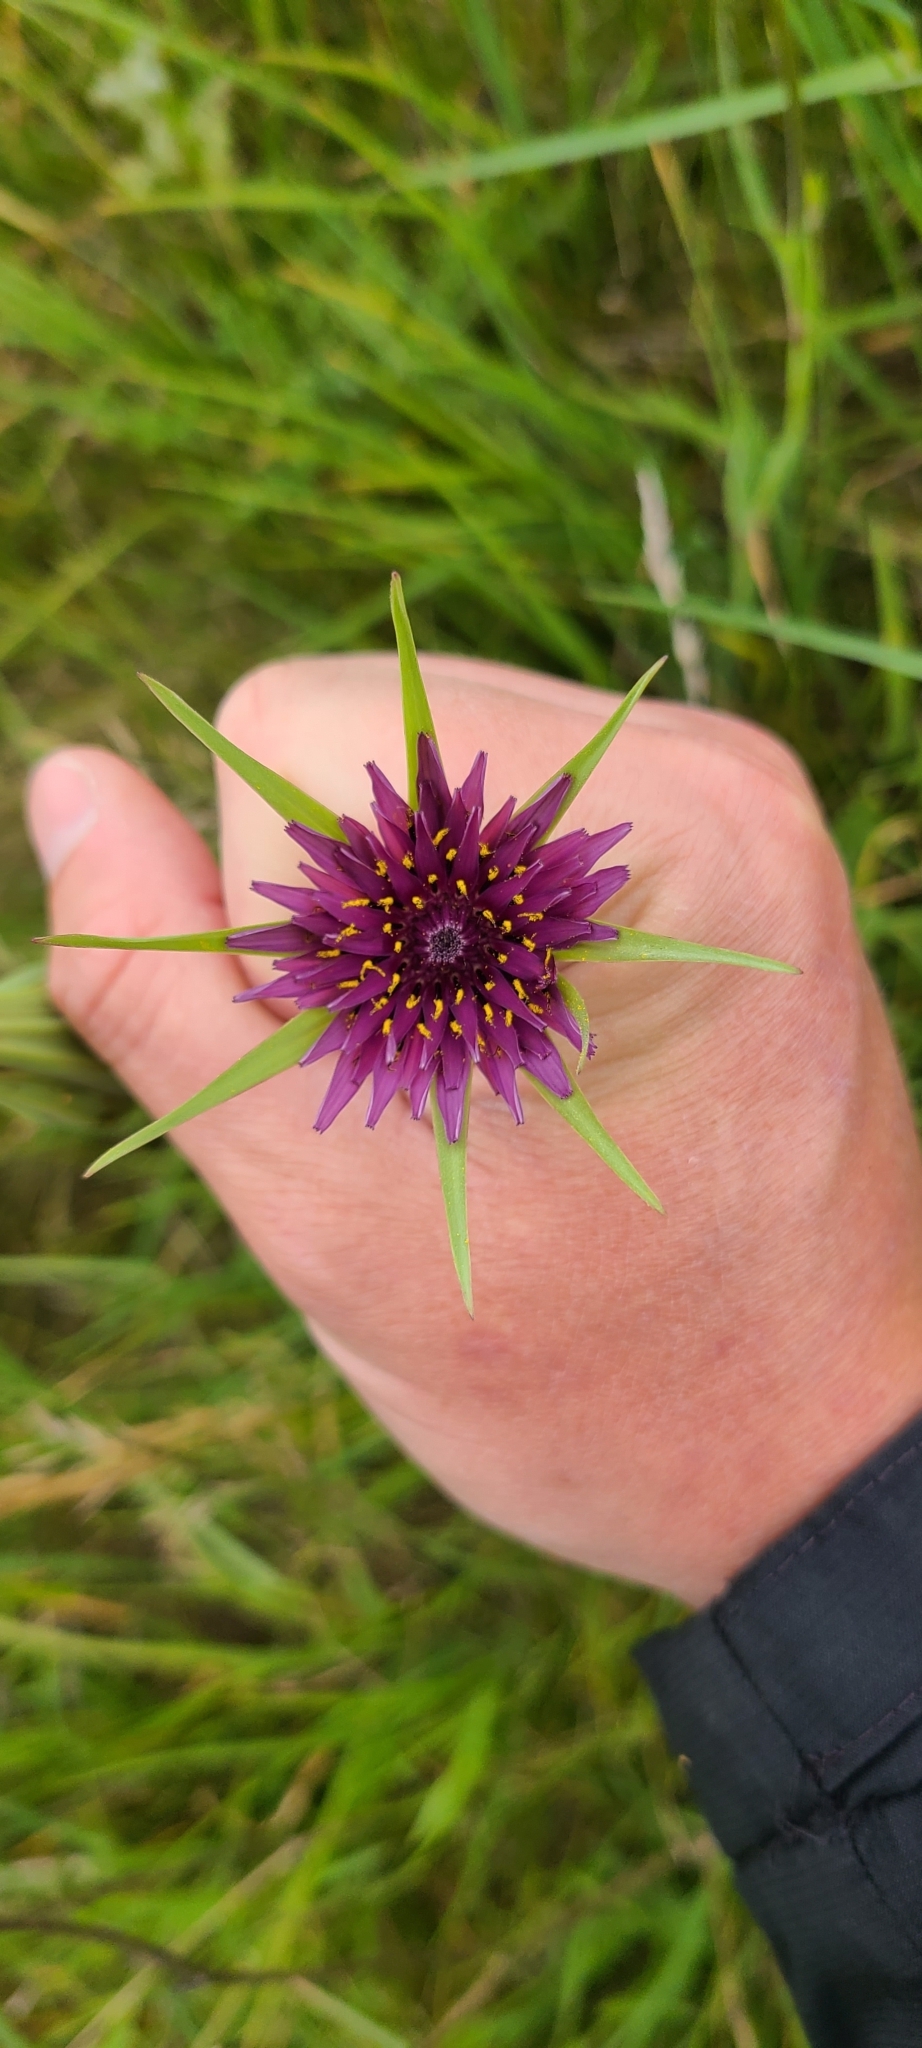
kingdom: Plantae
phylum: Tracheophyta
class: Magnoliopsida
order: Asterales
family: Asteraceae
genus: Tragopogon
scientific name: Tragopogon porrifolius
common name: Salsify
